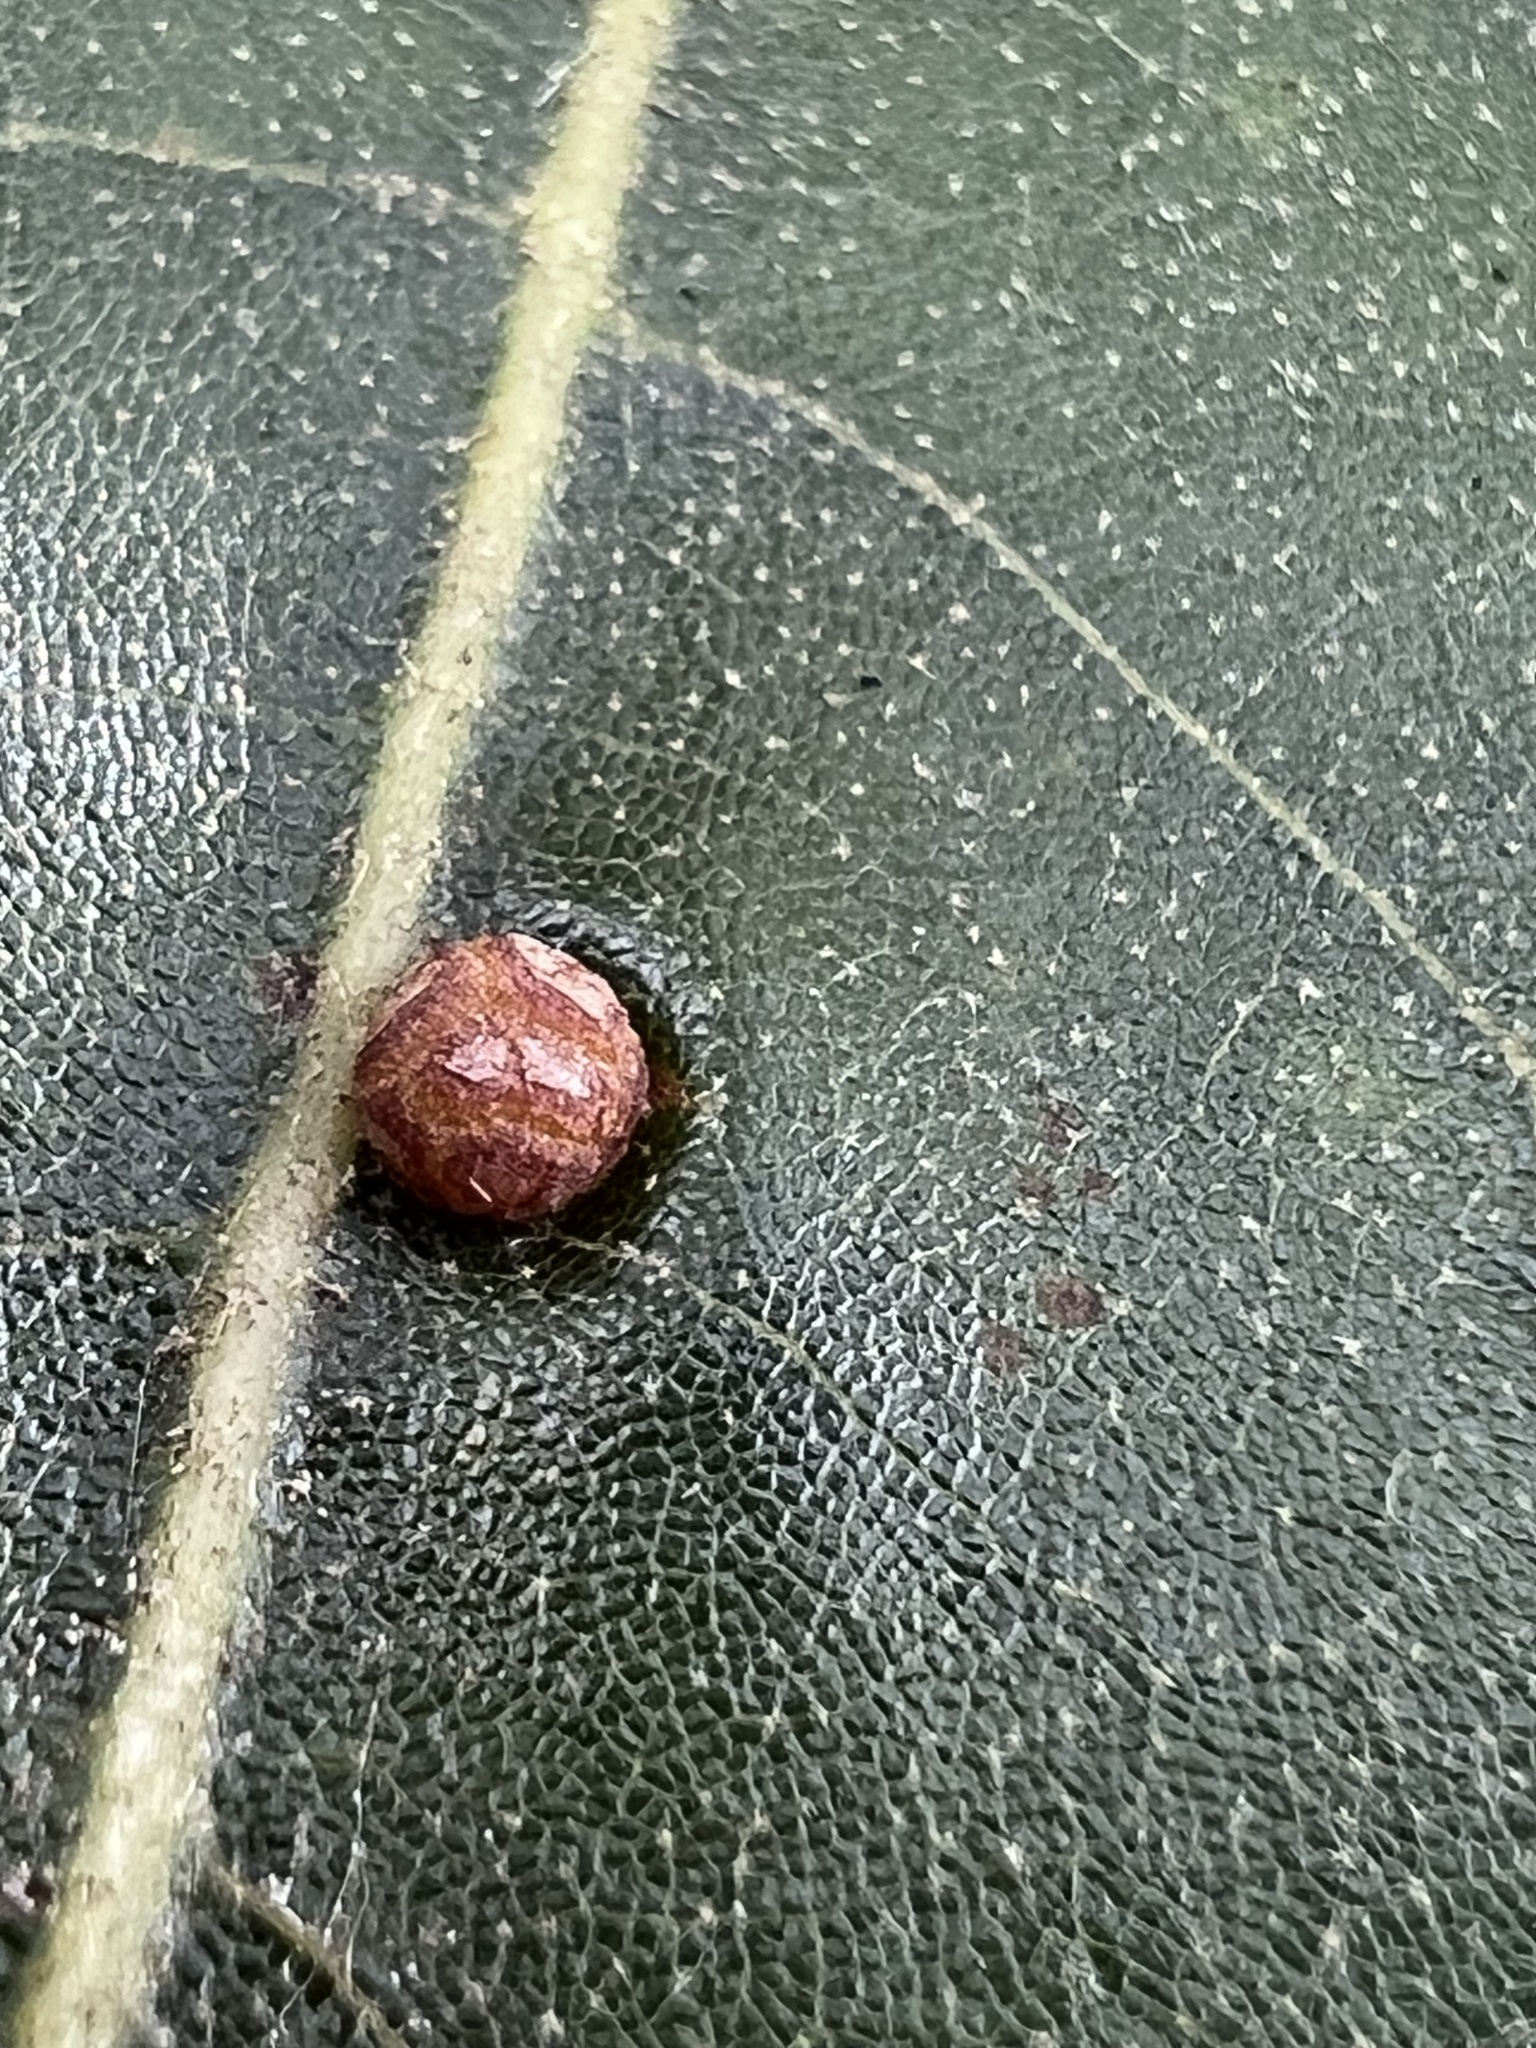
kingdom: Animalia
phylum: Arthropoda
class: Insecta
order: Diptera
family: Cecidomyiidae
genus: Polystepha
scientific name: Polystepha symmetrica
